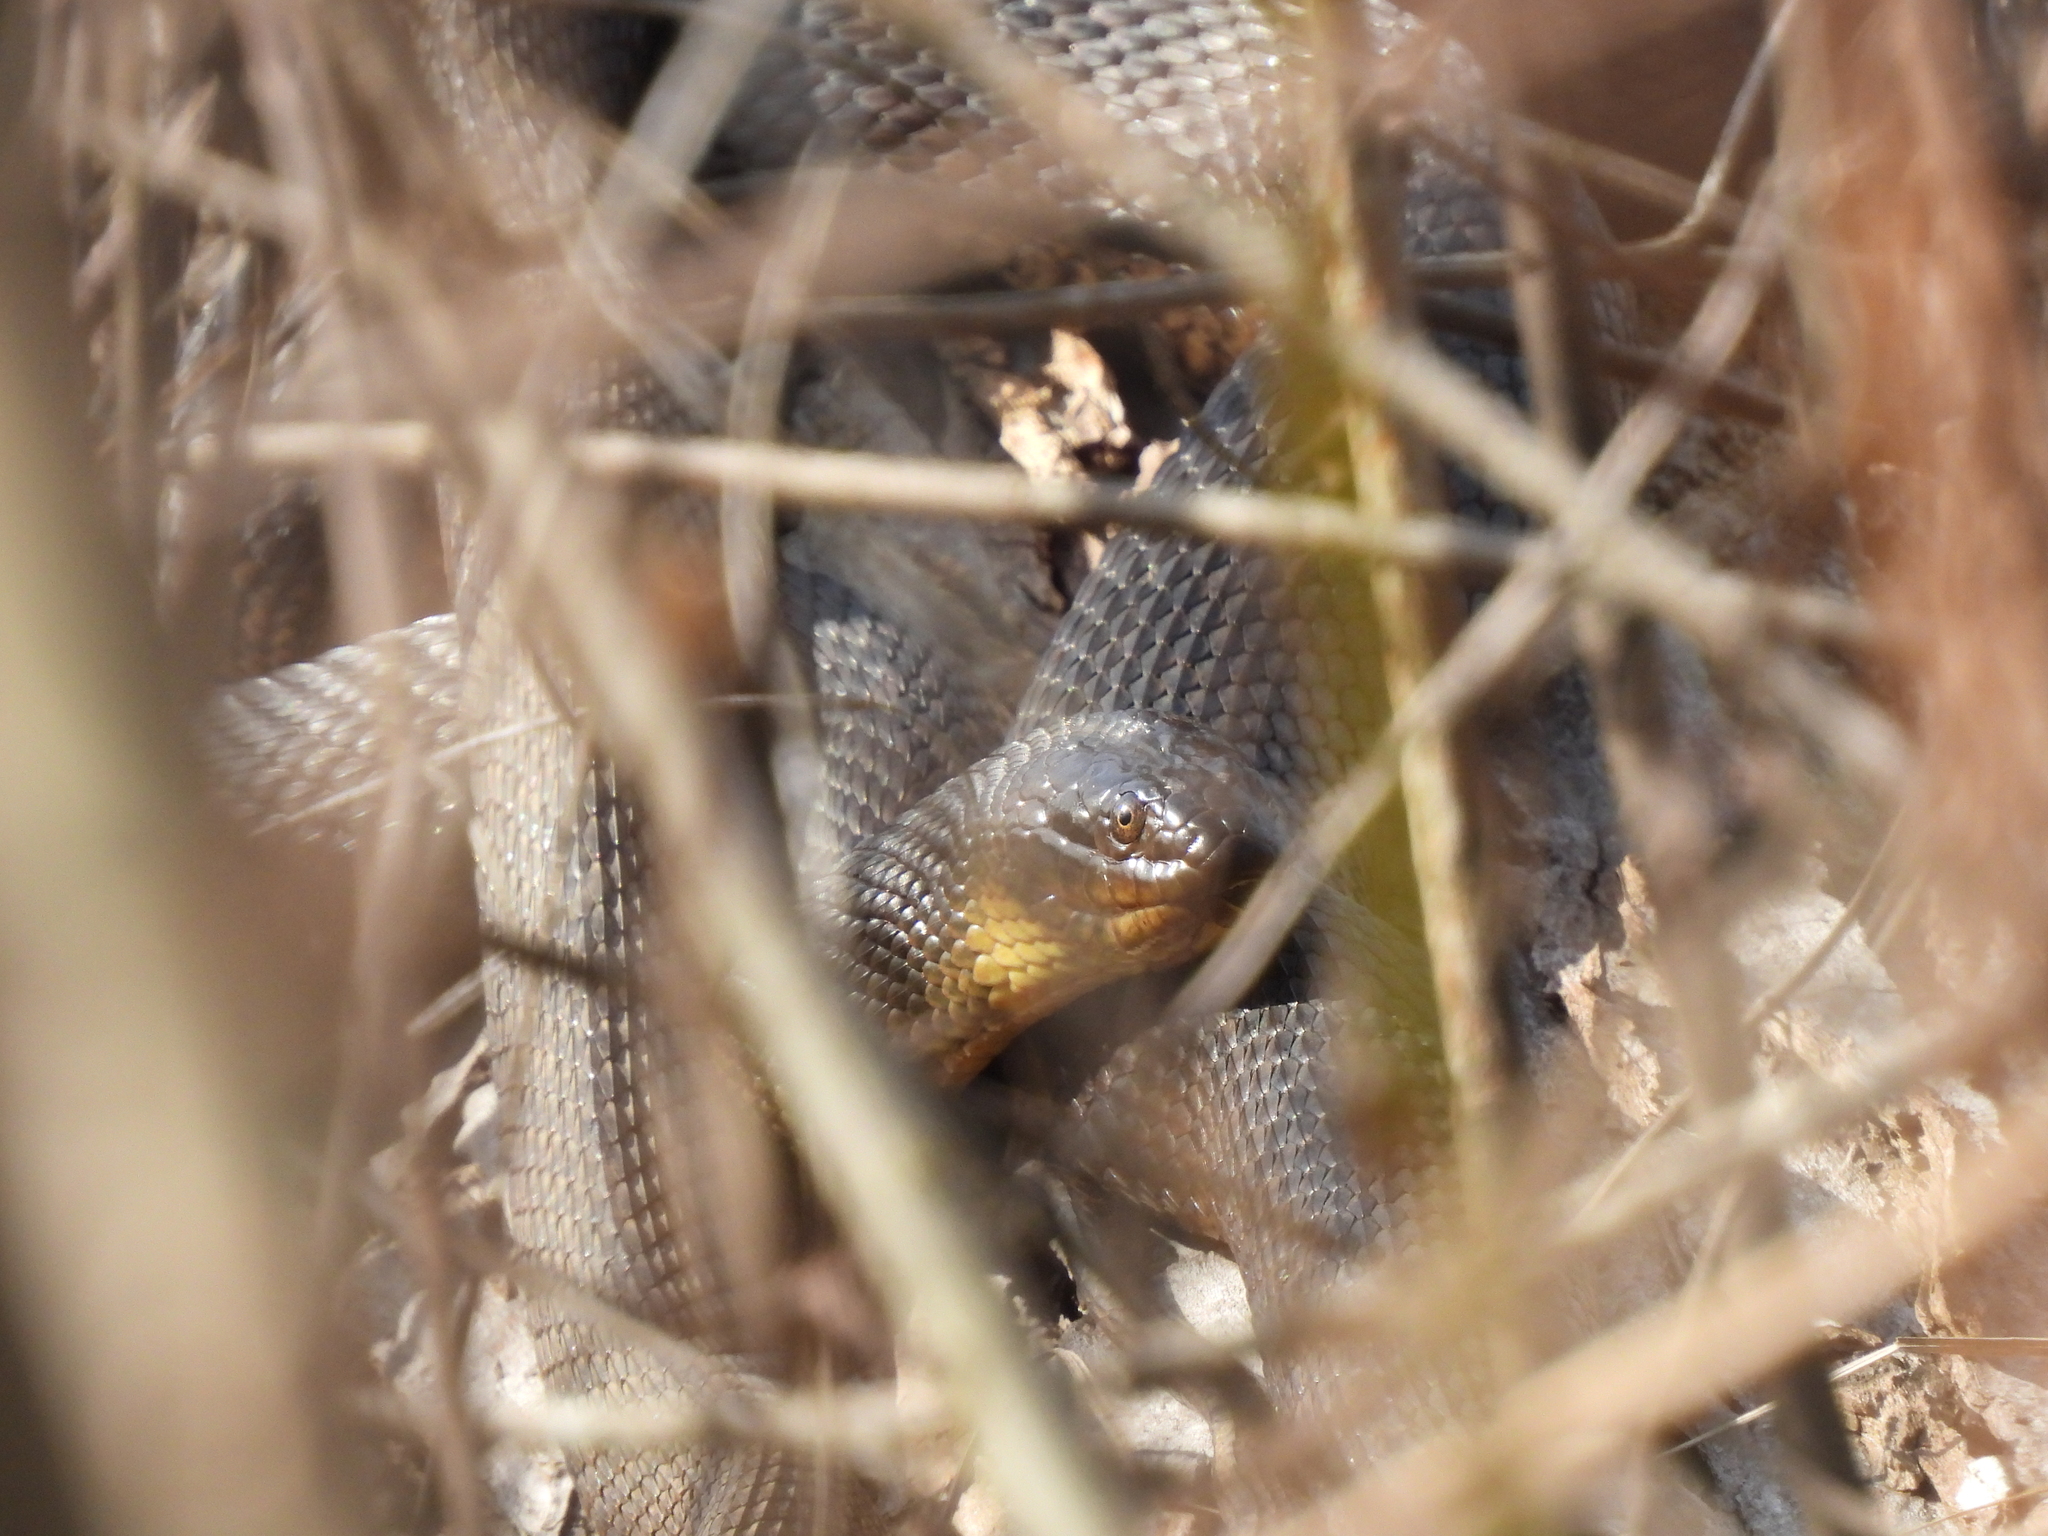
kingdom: Animalia
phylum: Chordata
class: Squamata
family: Colubridae
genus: Nerodia
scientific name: Nerodia cyclopion
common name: Mississippi green water snake
